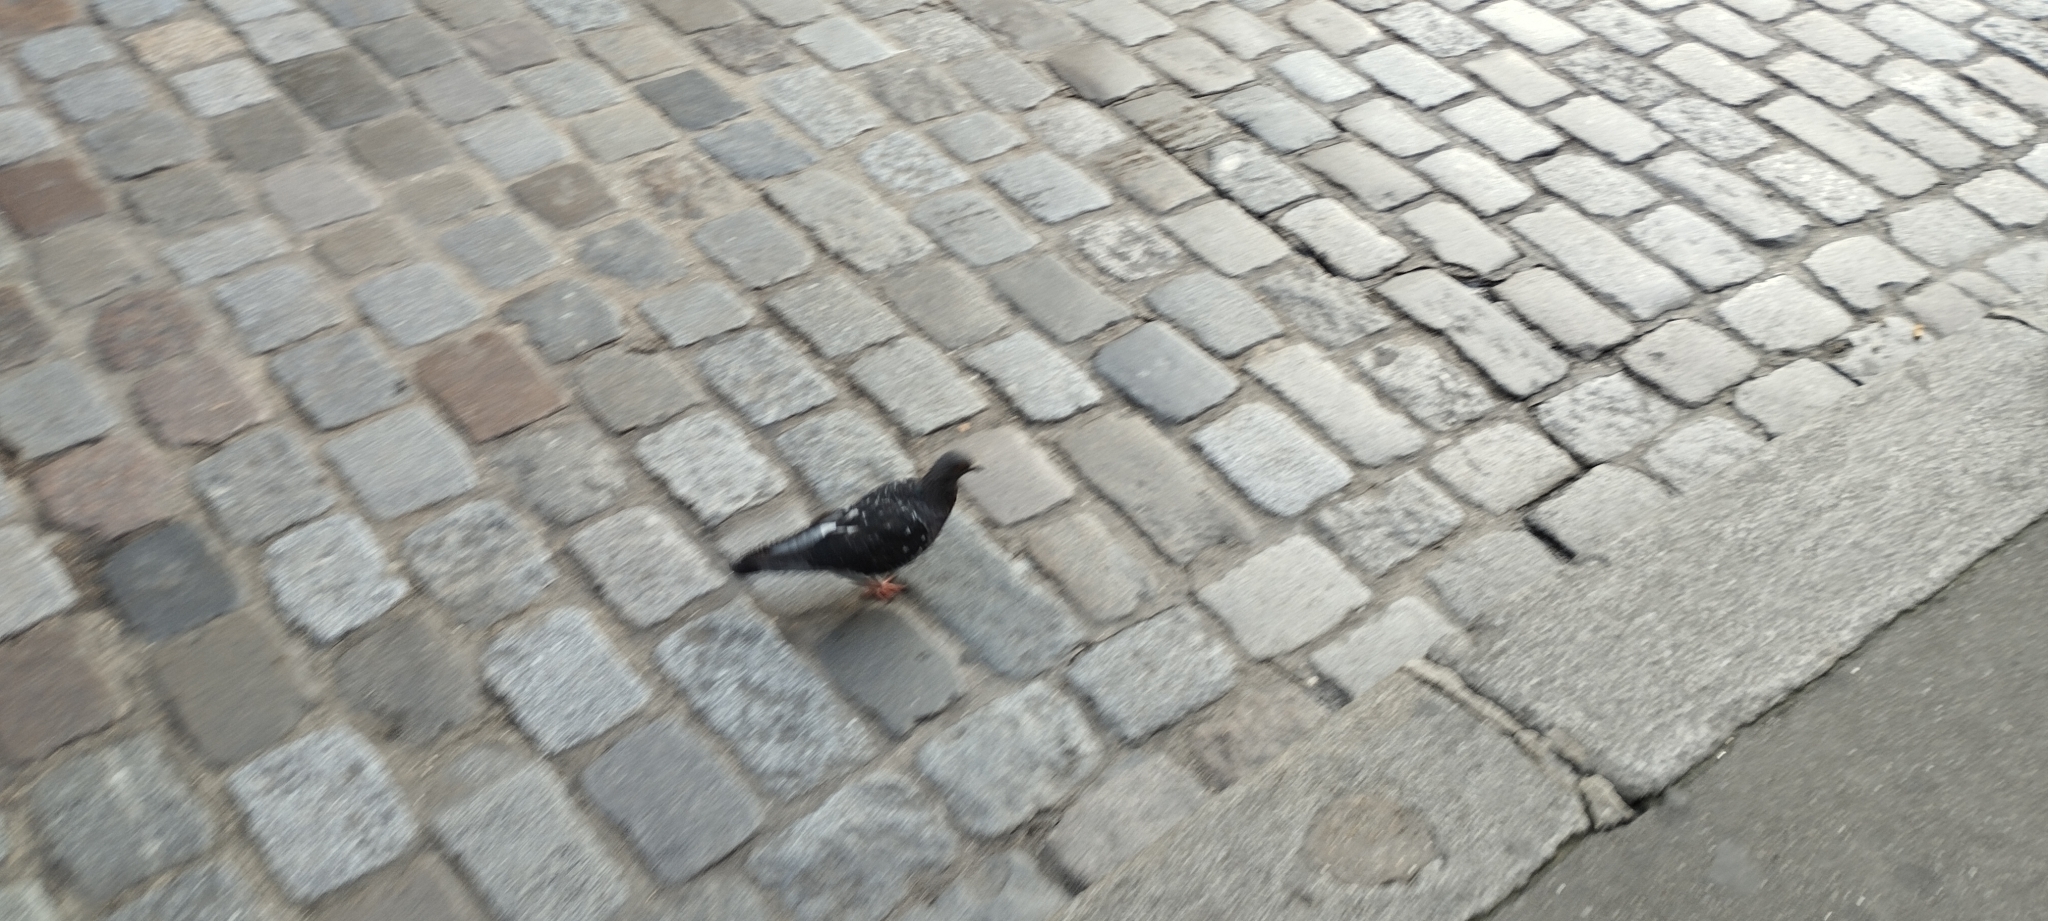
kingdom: Animalia
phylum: Chordata
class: Aves
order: Columbiformes
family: Columbidae
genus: Columba
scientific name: Columba livia
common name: Rock pigeon
